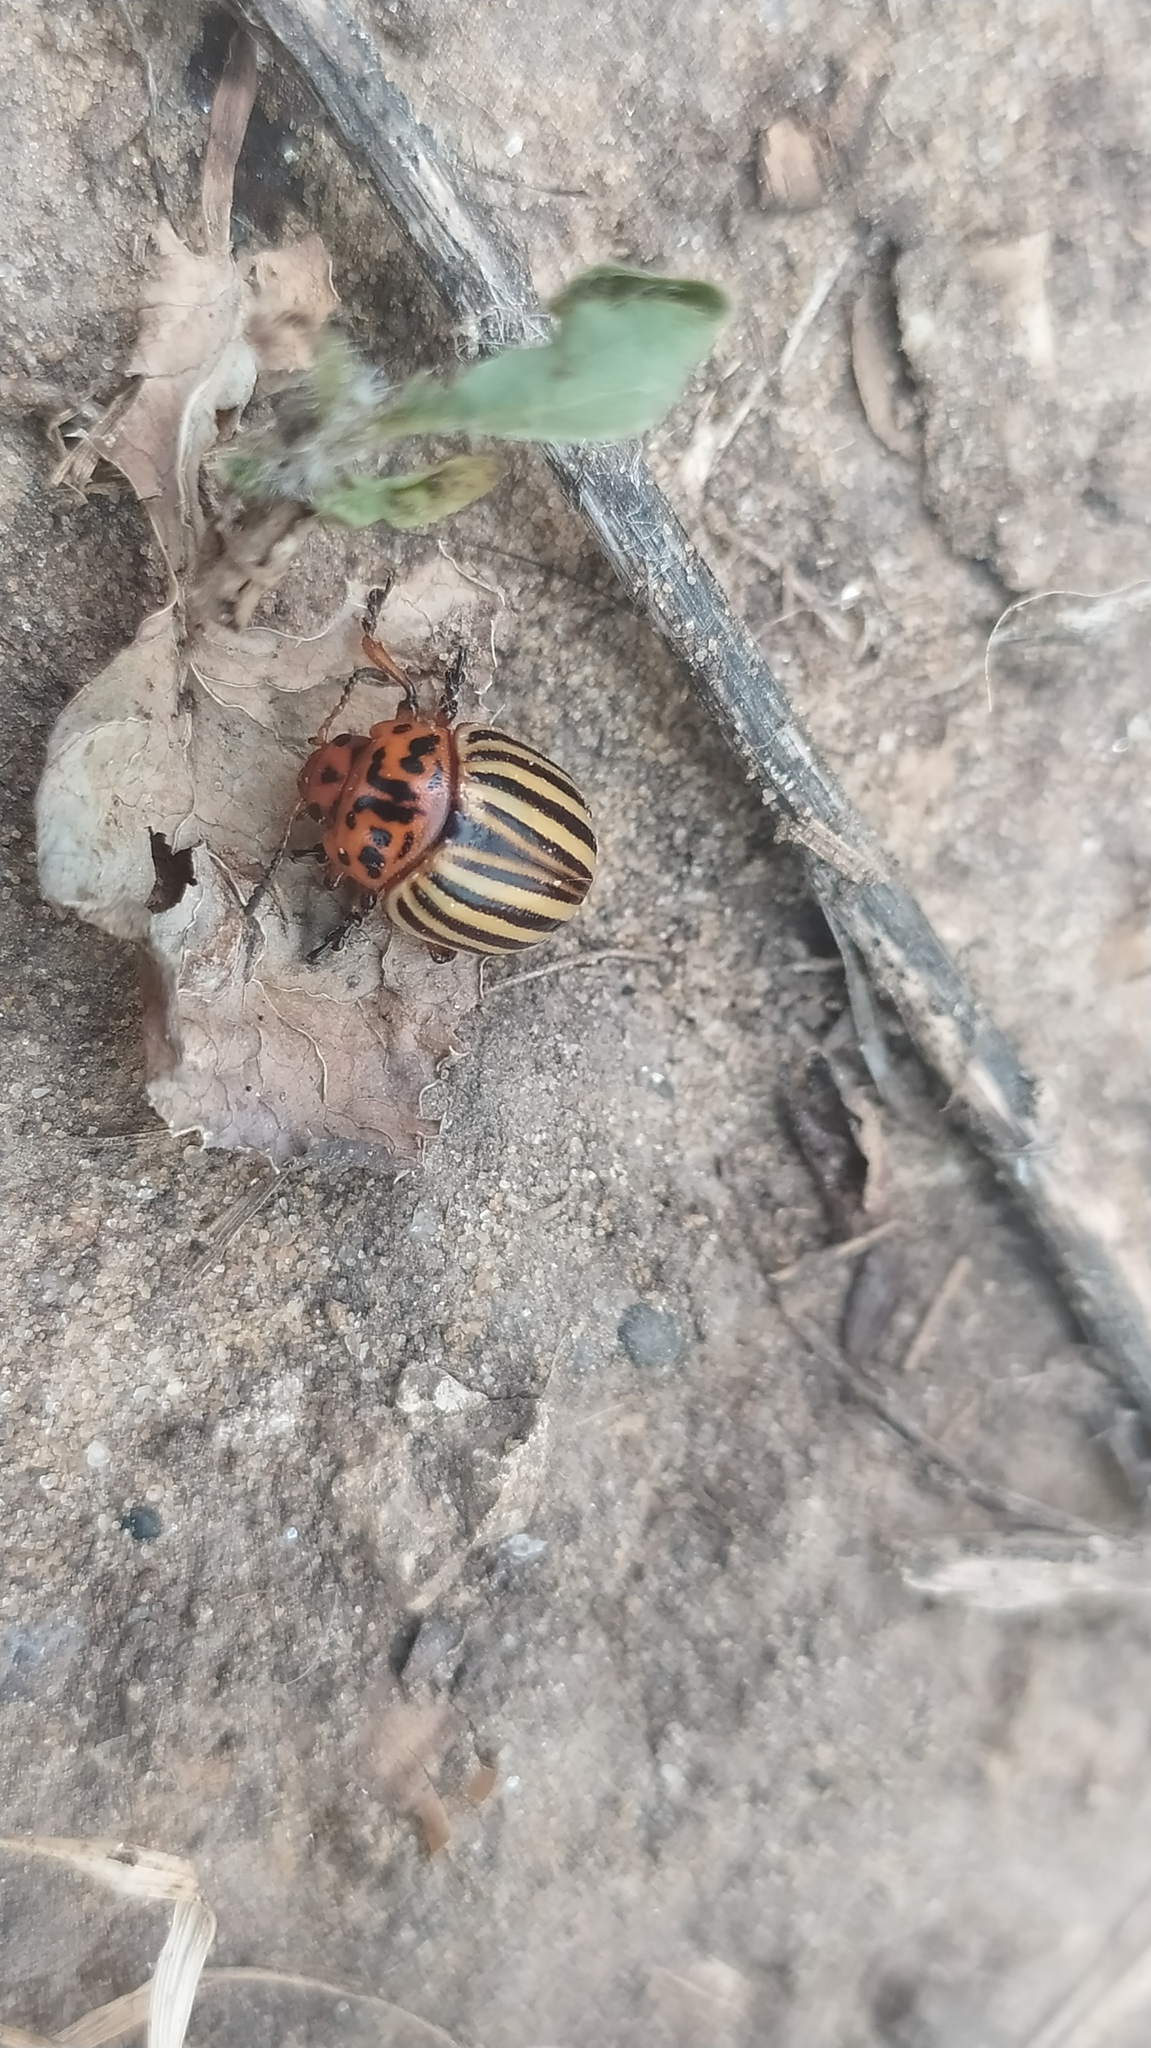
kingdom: Animalia
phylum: Arthropoda
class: Insecta
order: Coleoptera
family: Chrysomelidae
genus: Leptinotarsa
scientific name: Leptinotarsa decemlineata
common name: Colorado potato beetle
